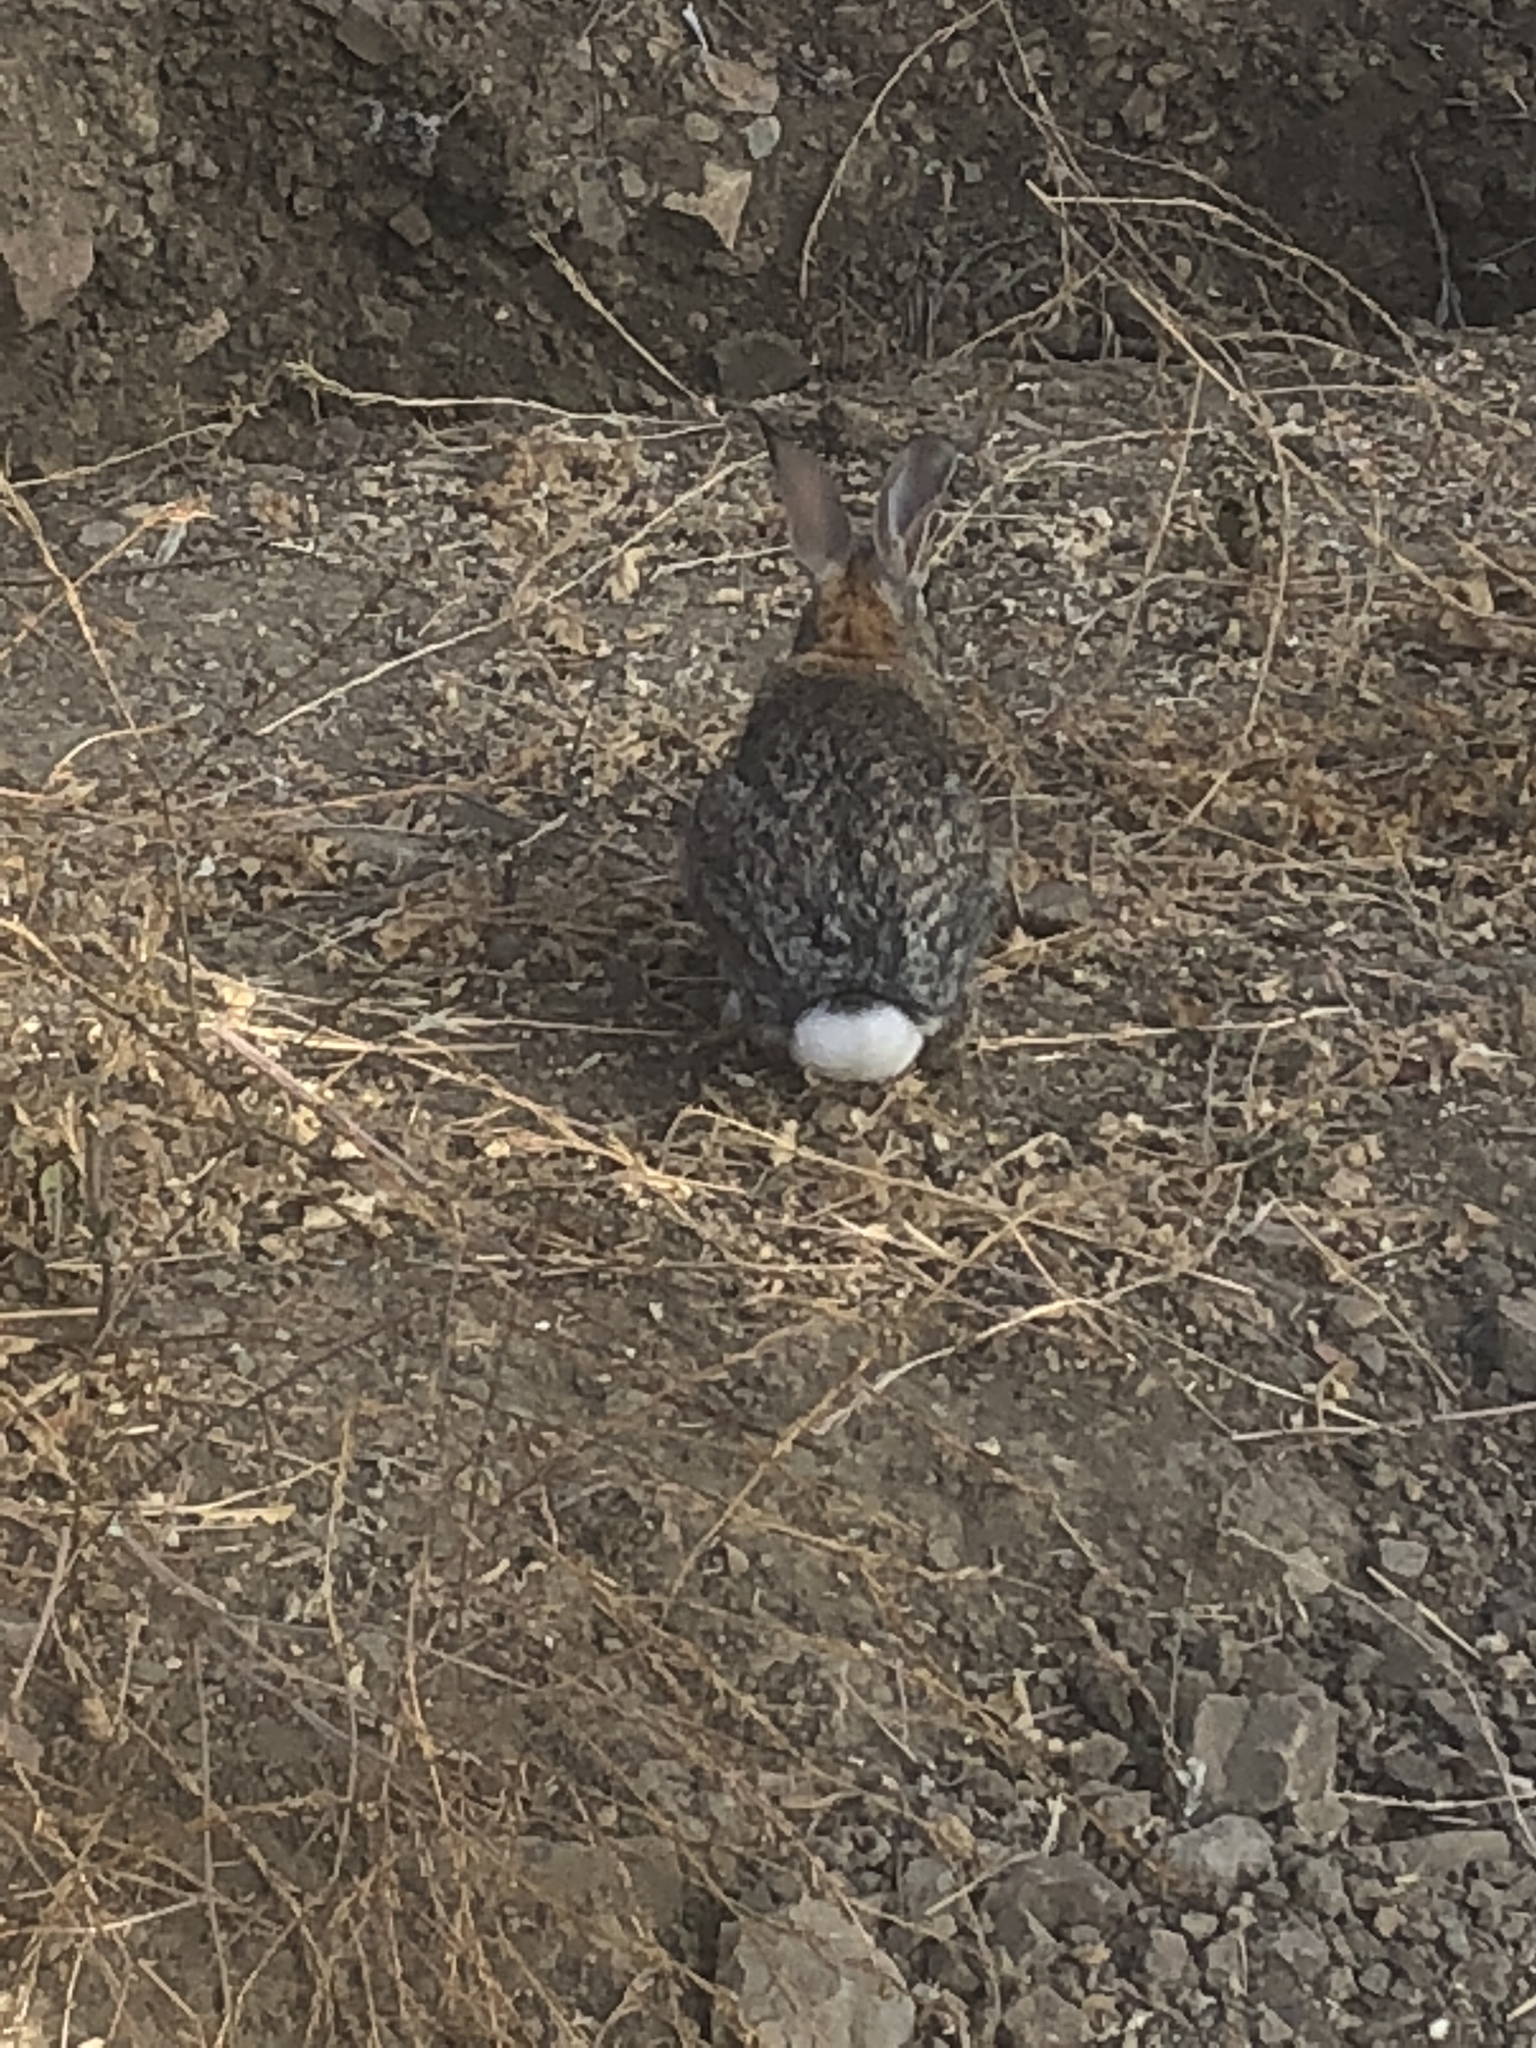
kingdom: Animalia
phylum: Chordata
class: Mammalia
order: Lagomorpha
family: Leporidae
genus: Sylvilagus
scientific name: Sylvilagus audubonii
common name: Desert cottontail
